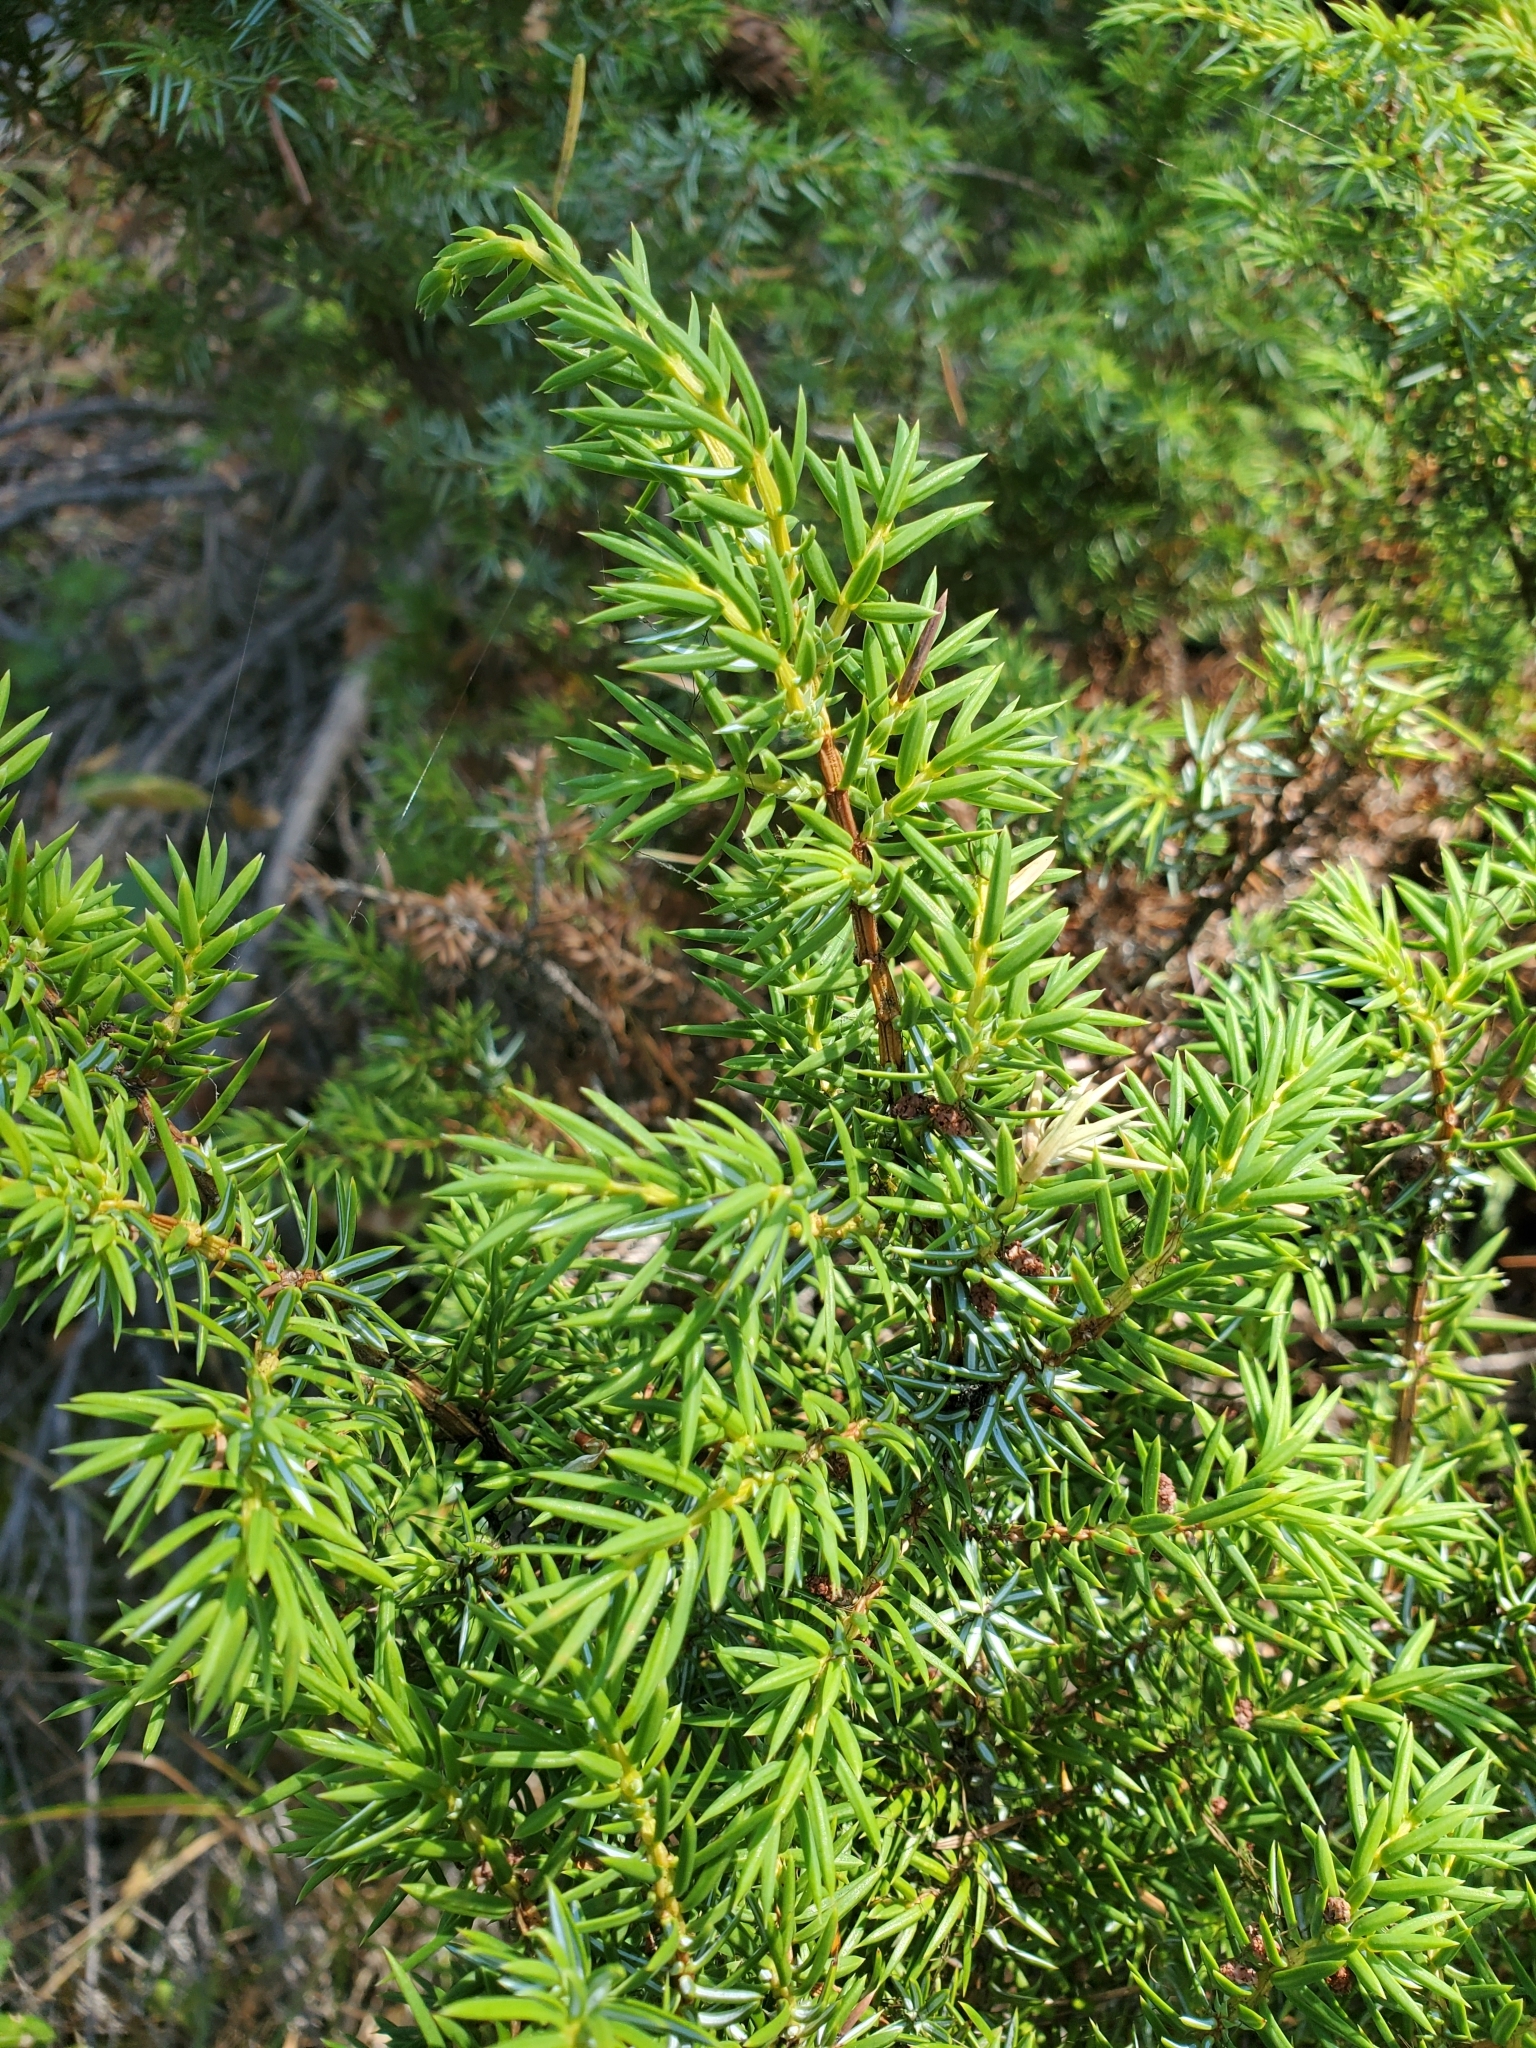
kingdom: Plantae
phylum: Tracheophyta
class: Pinopsida
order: Pinales
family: Cupressaceae
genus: Juniperus
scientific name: Juniperus communis
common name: Common juniper
